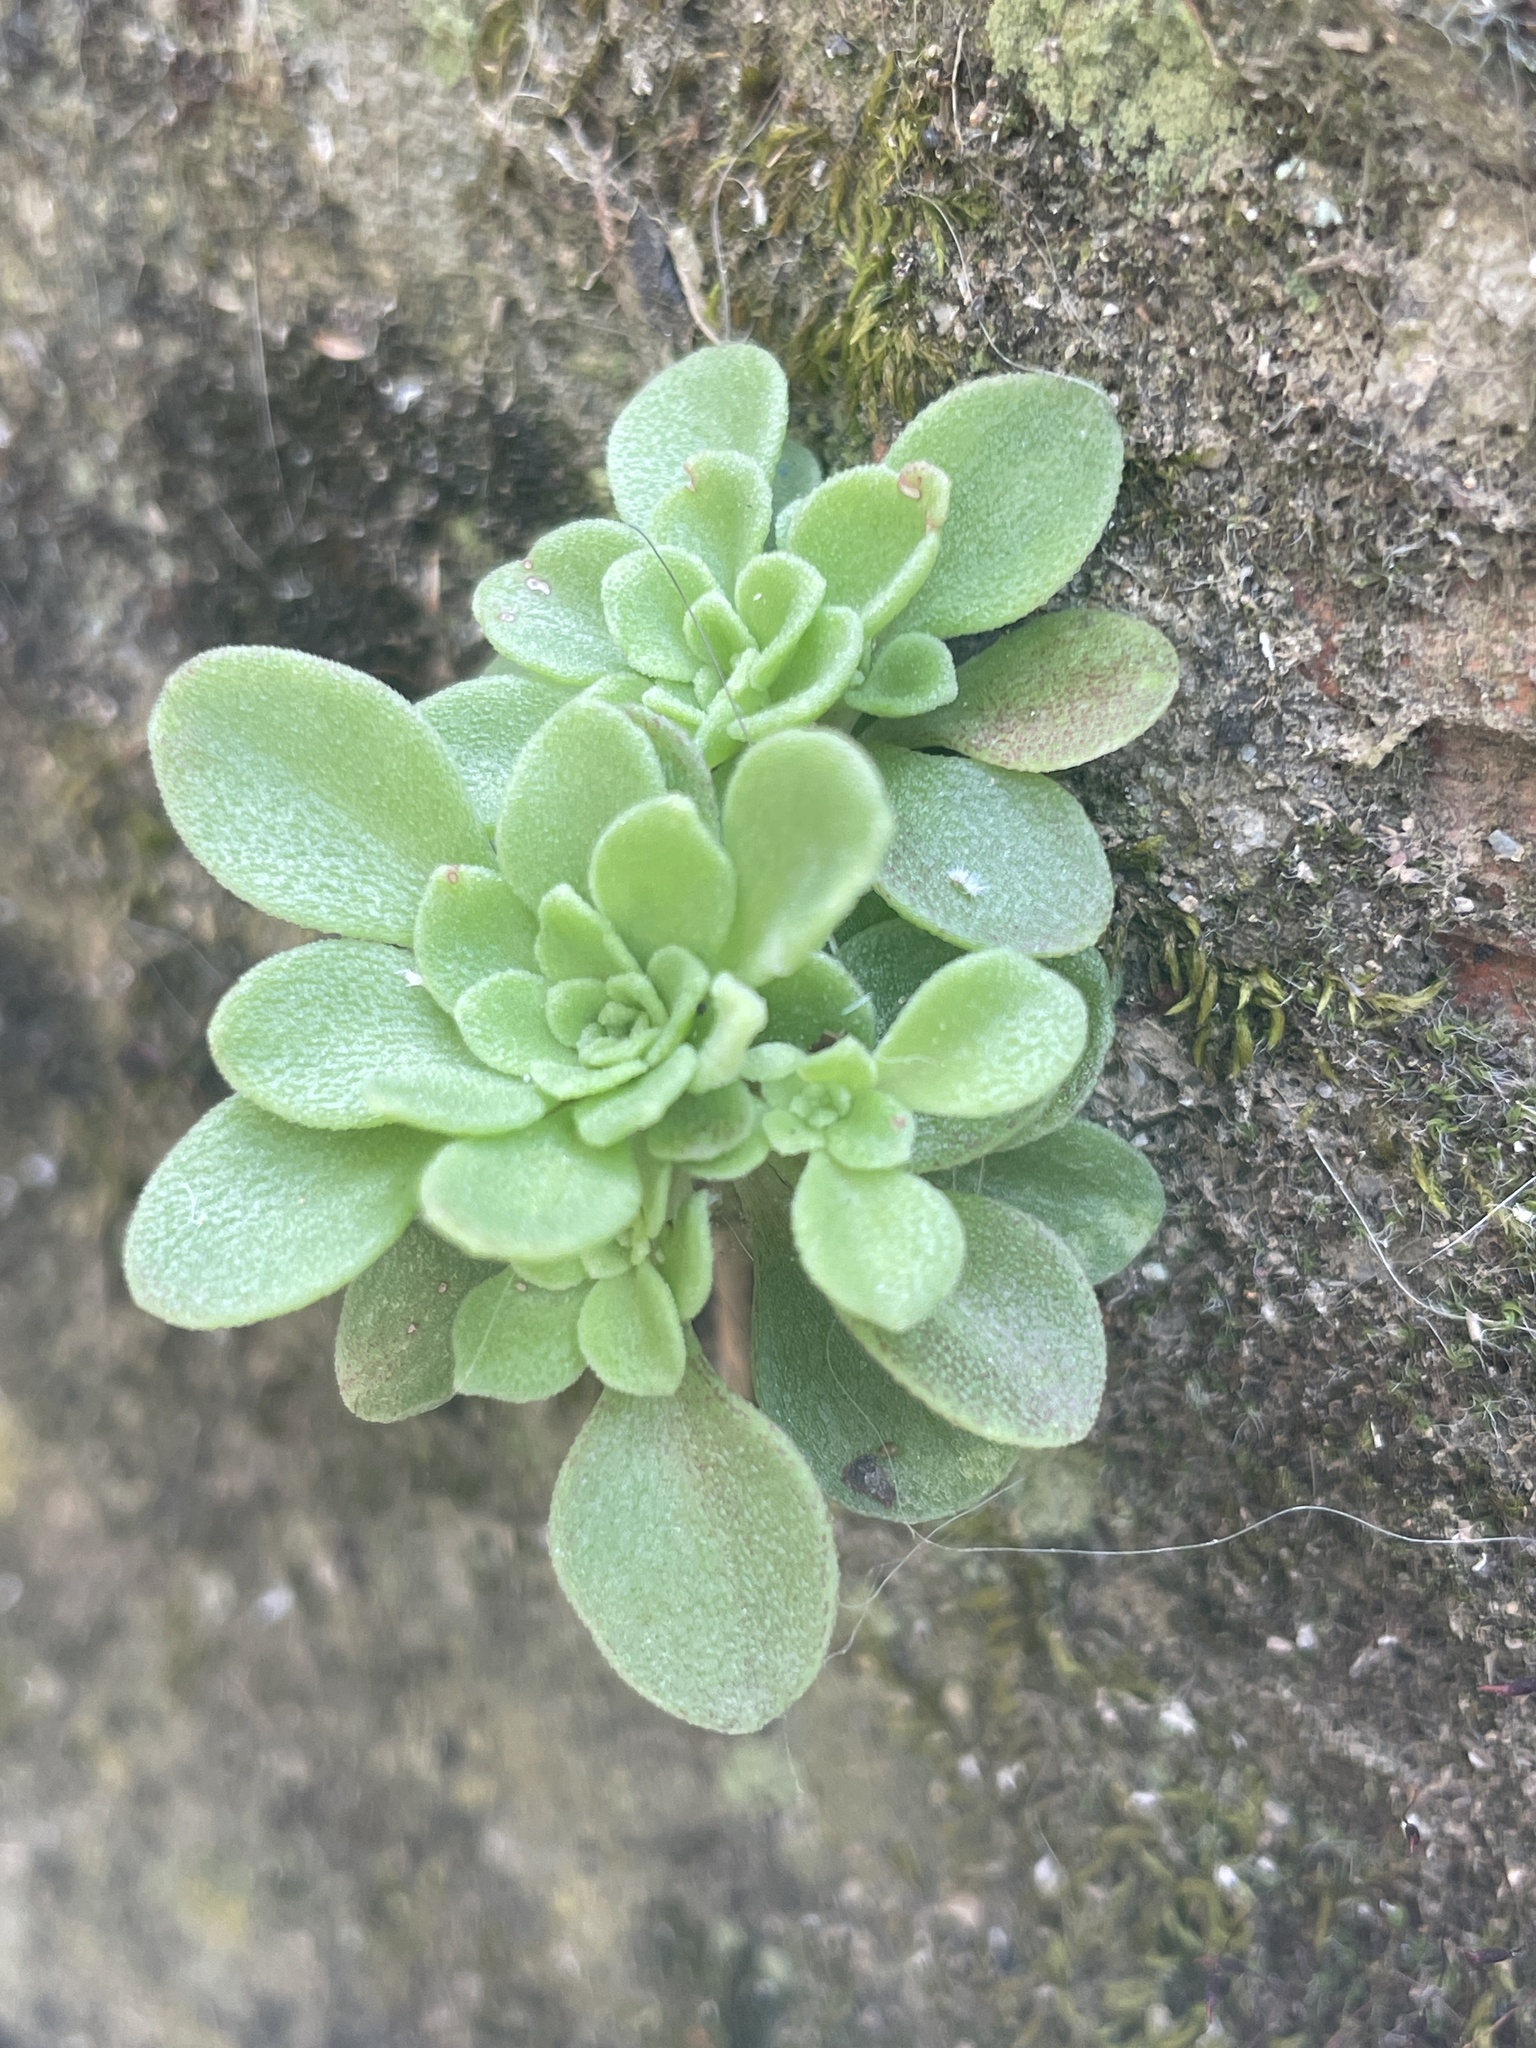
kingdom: Plantae
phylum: Tracheophyta
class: Magnoliopsida
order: Saxifragales
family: Crassulaceae
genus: Sedum
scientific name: Sedum cepaea
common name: Pink stonecrop
